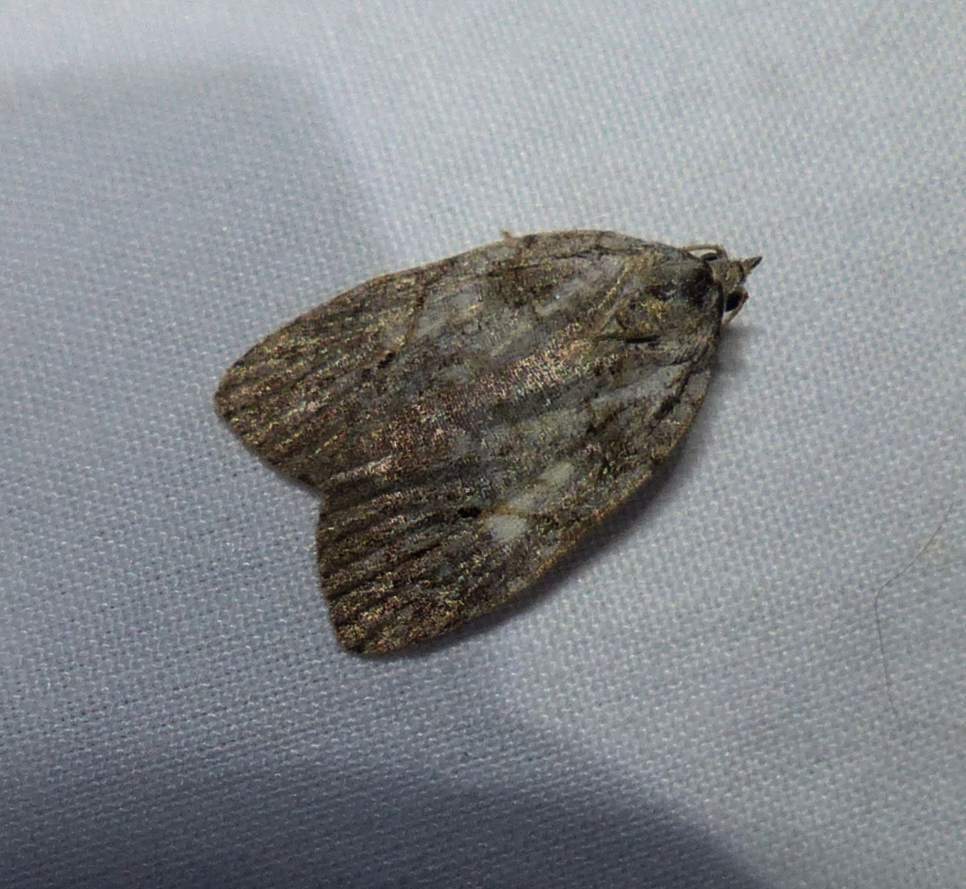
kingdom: Animalia
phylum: Arthropoda
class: Insecta
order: Lepidoptera
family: Noctuidae
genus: Balsa
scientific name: Balsa labecula
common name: White-blotched balsa moth
